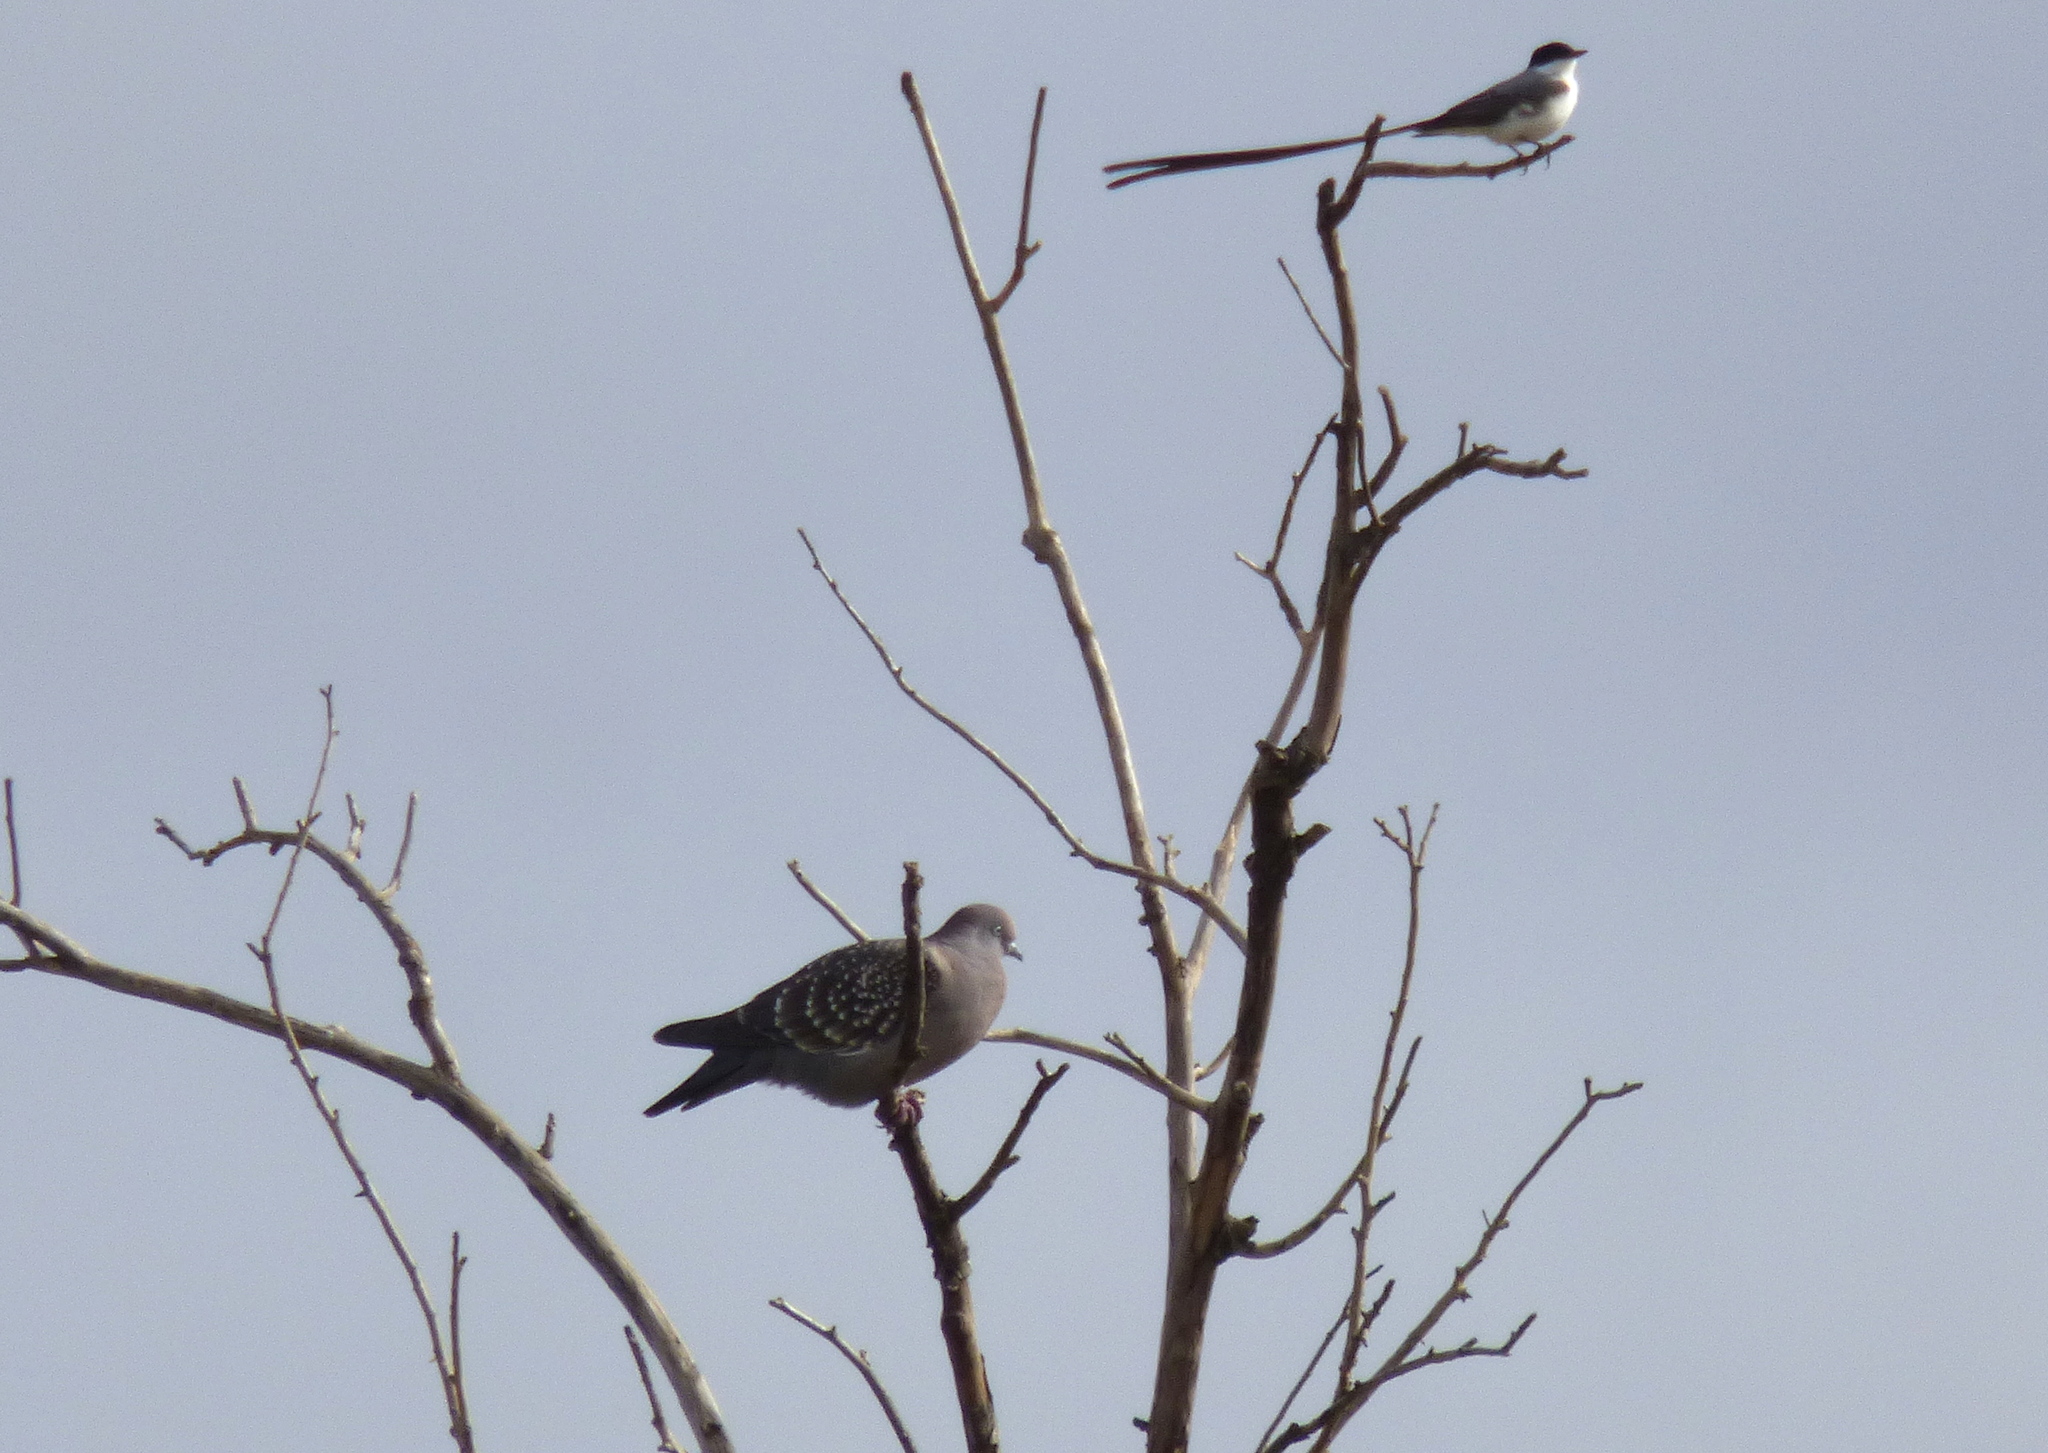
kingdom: Animalia
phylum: Chordata
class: Aves
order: Columbiformes
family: Columbidae
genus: Patagioenas
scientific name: Patagioenas maculosa
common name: Spot-winged pigeon
